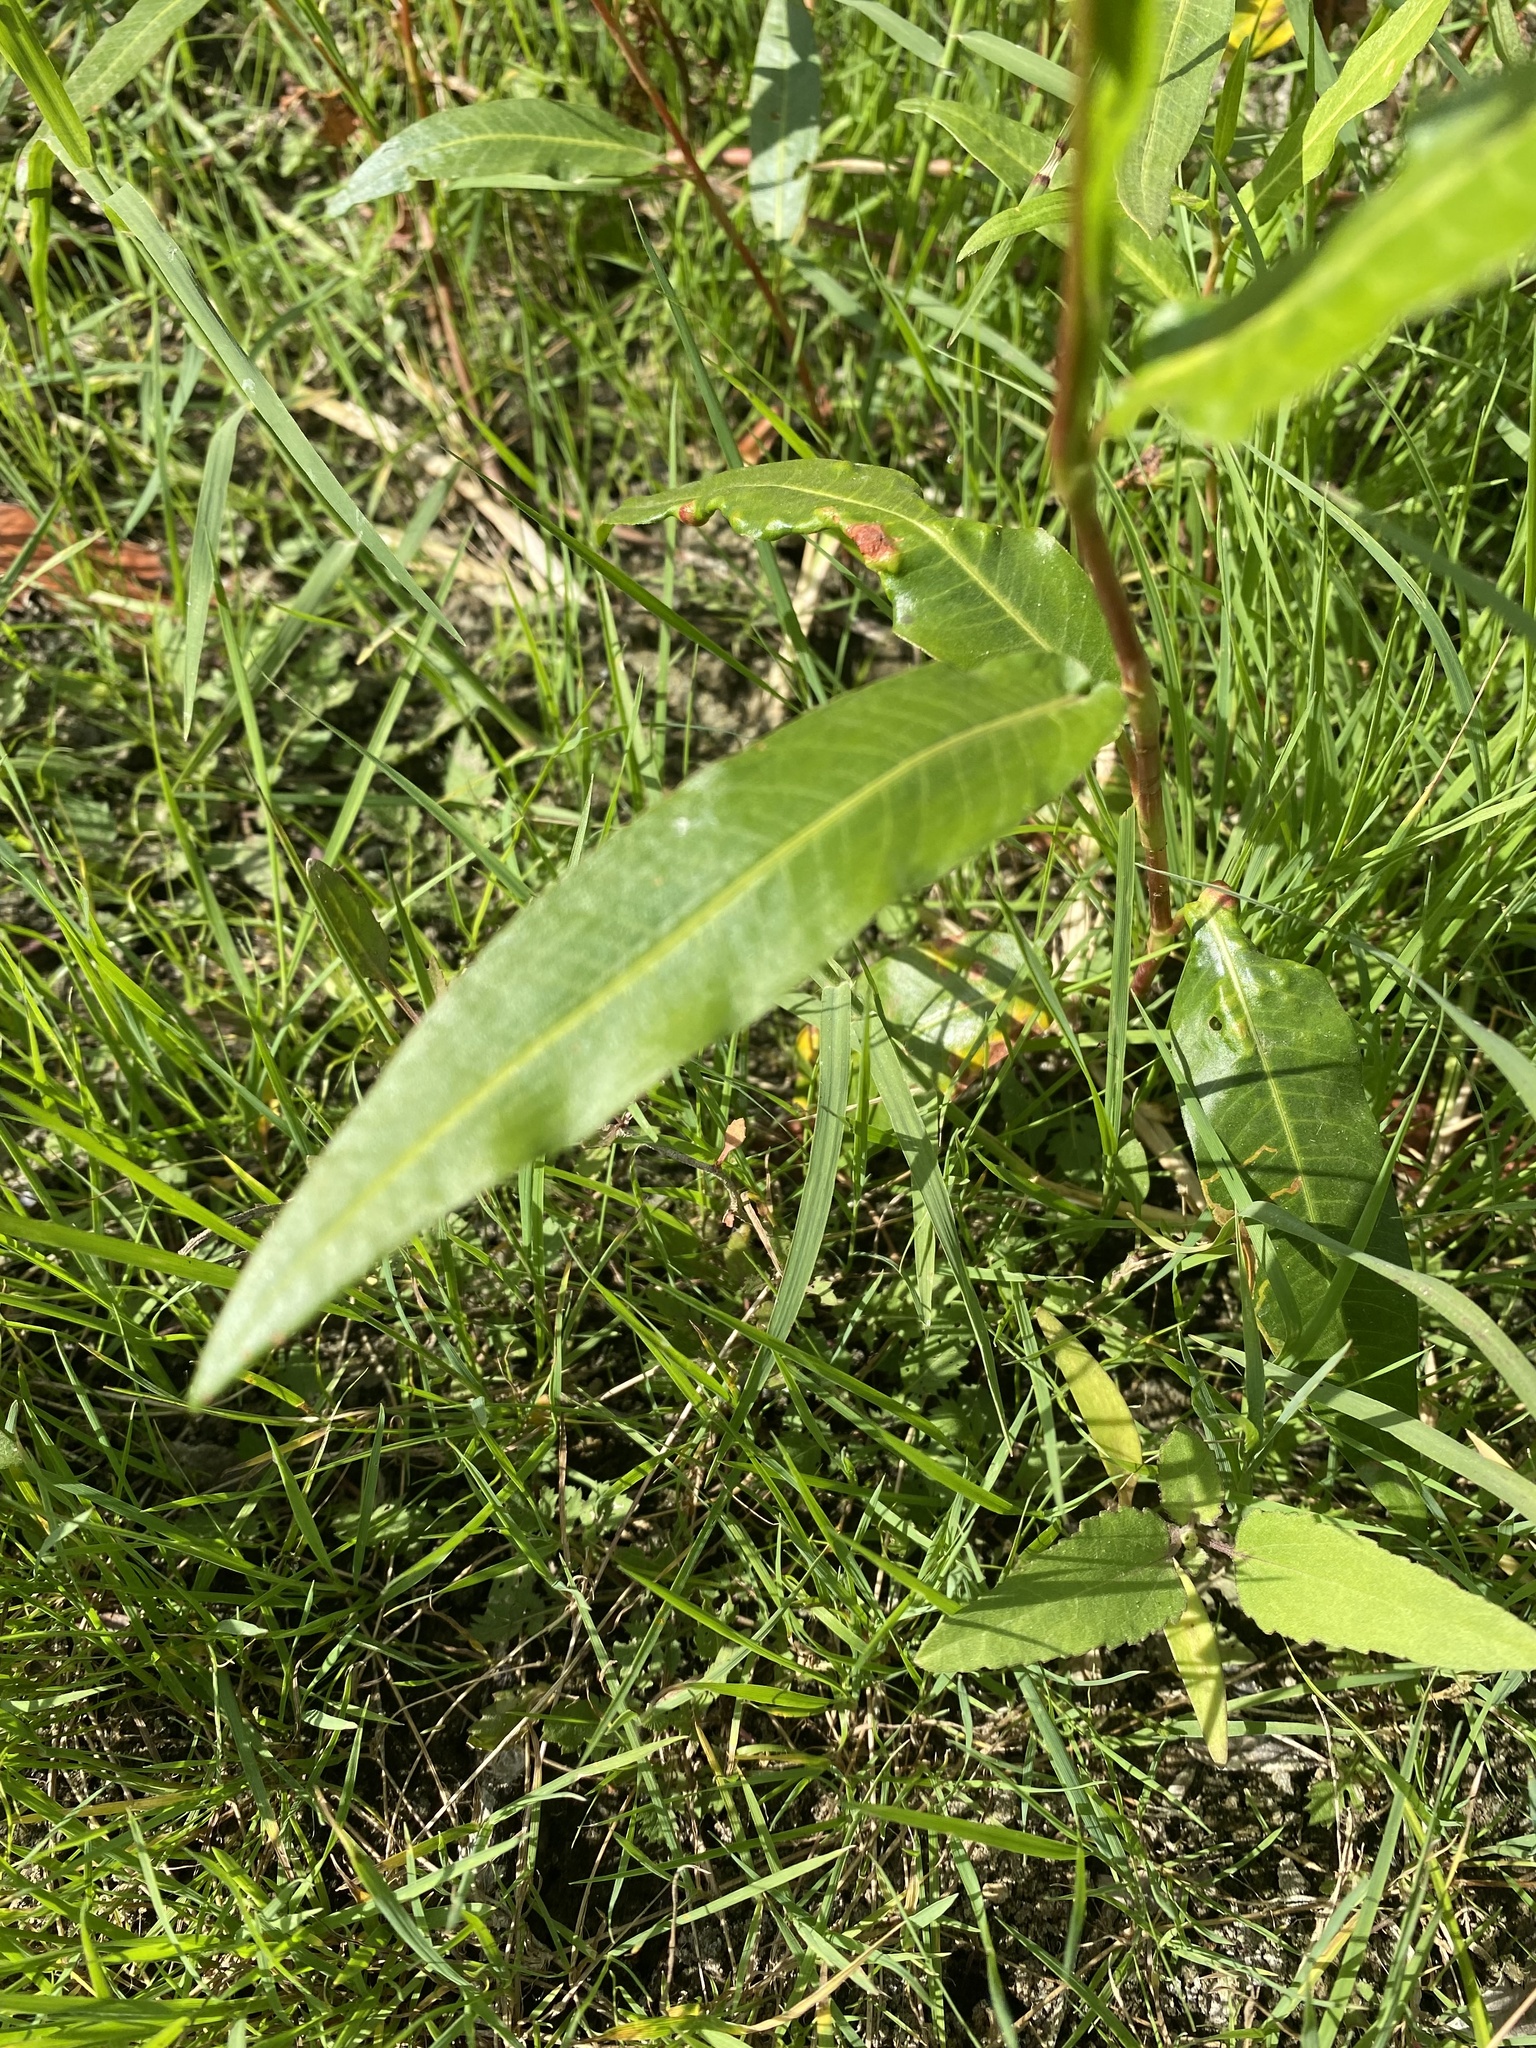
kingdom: Plantae
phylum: Tracheophyta
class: Magnoliopsida
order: Caryophyllales
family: Polygonaceae
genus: Persicaria
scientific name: Persicaria amphibia
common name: Amphibious bistort
